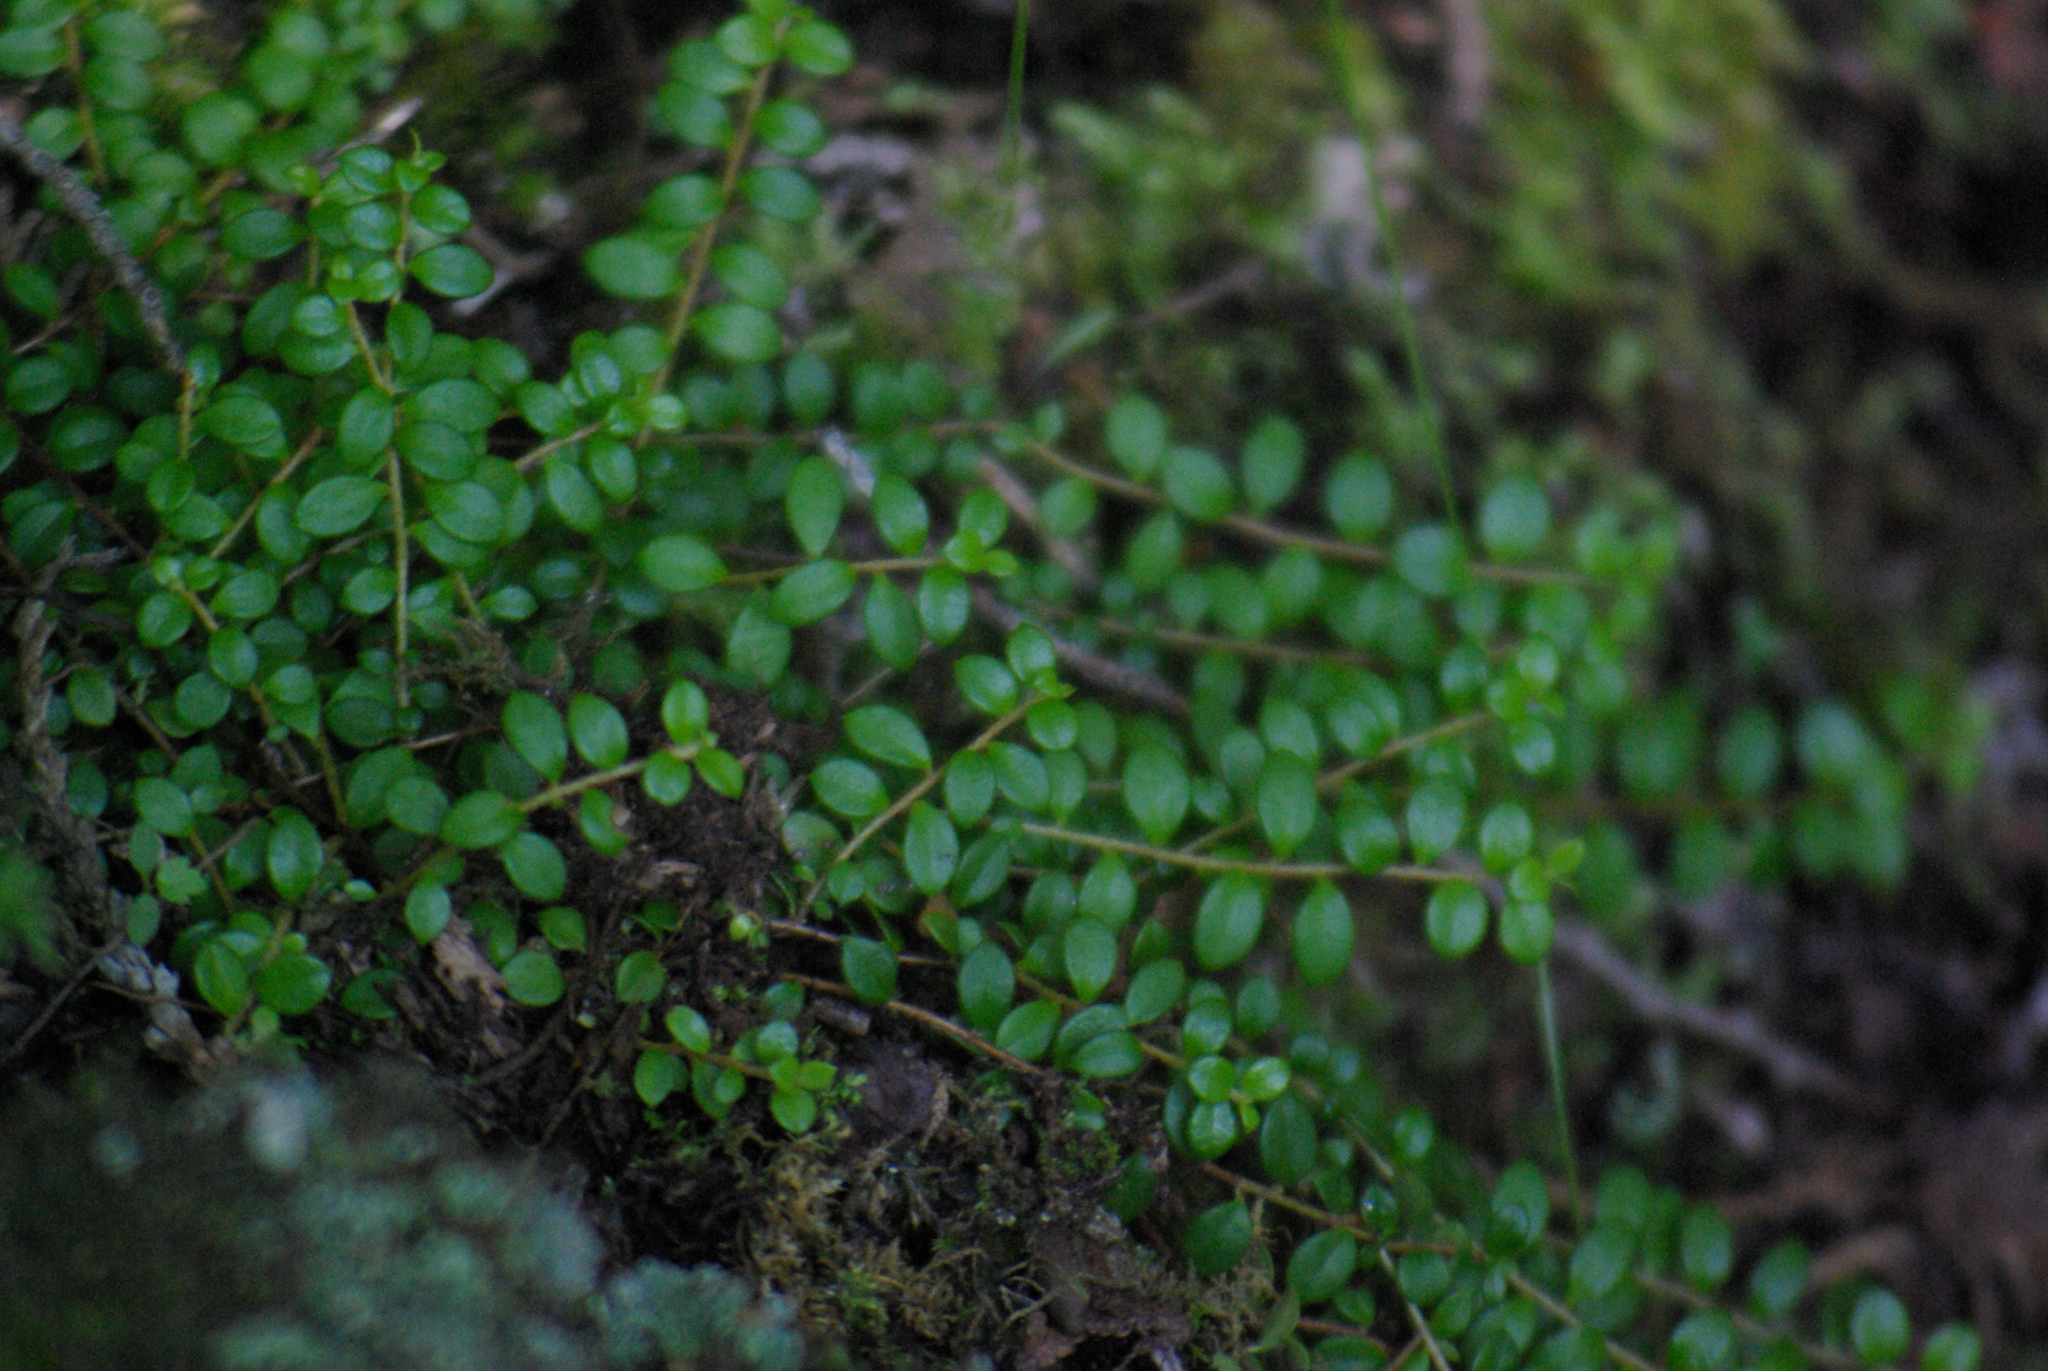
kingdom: Plantae
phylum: Tracheophyta
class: Magnoliopsida
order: Ericales
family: Ericaceae
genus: Gaultheria
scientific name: Gaultheria hispidula
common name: Cancer wintergreen
